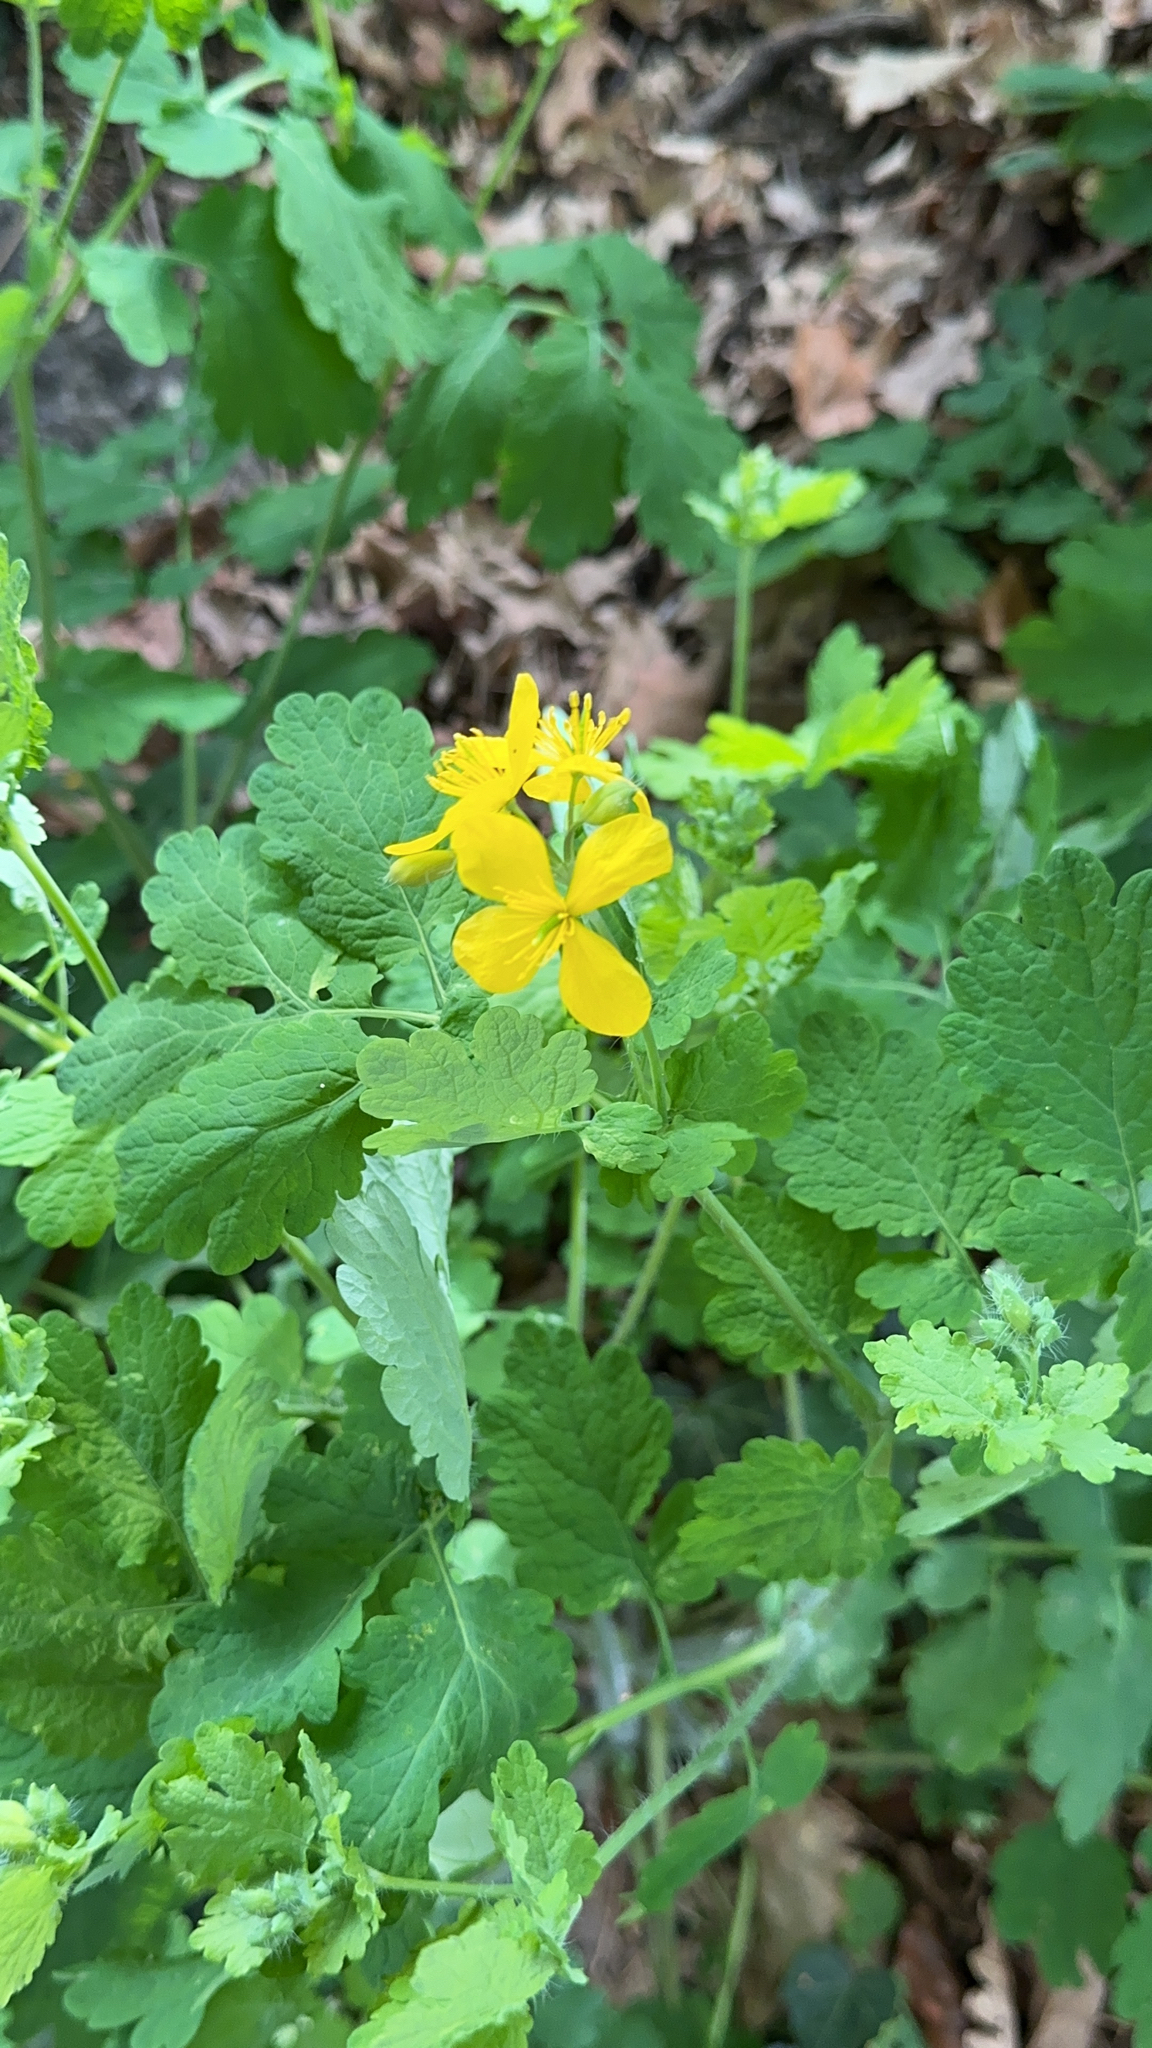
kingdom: Plantae
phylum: Tracheophyta
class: Magnoliopsida
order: Ranunculales
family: Papaveraceae
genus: Chelidonium
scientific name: Chelidonium majus
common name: Greater celandine
